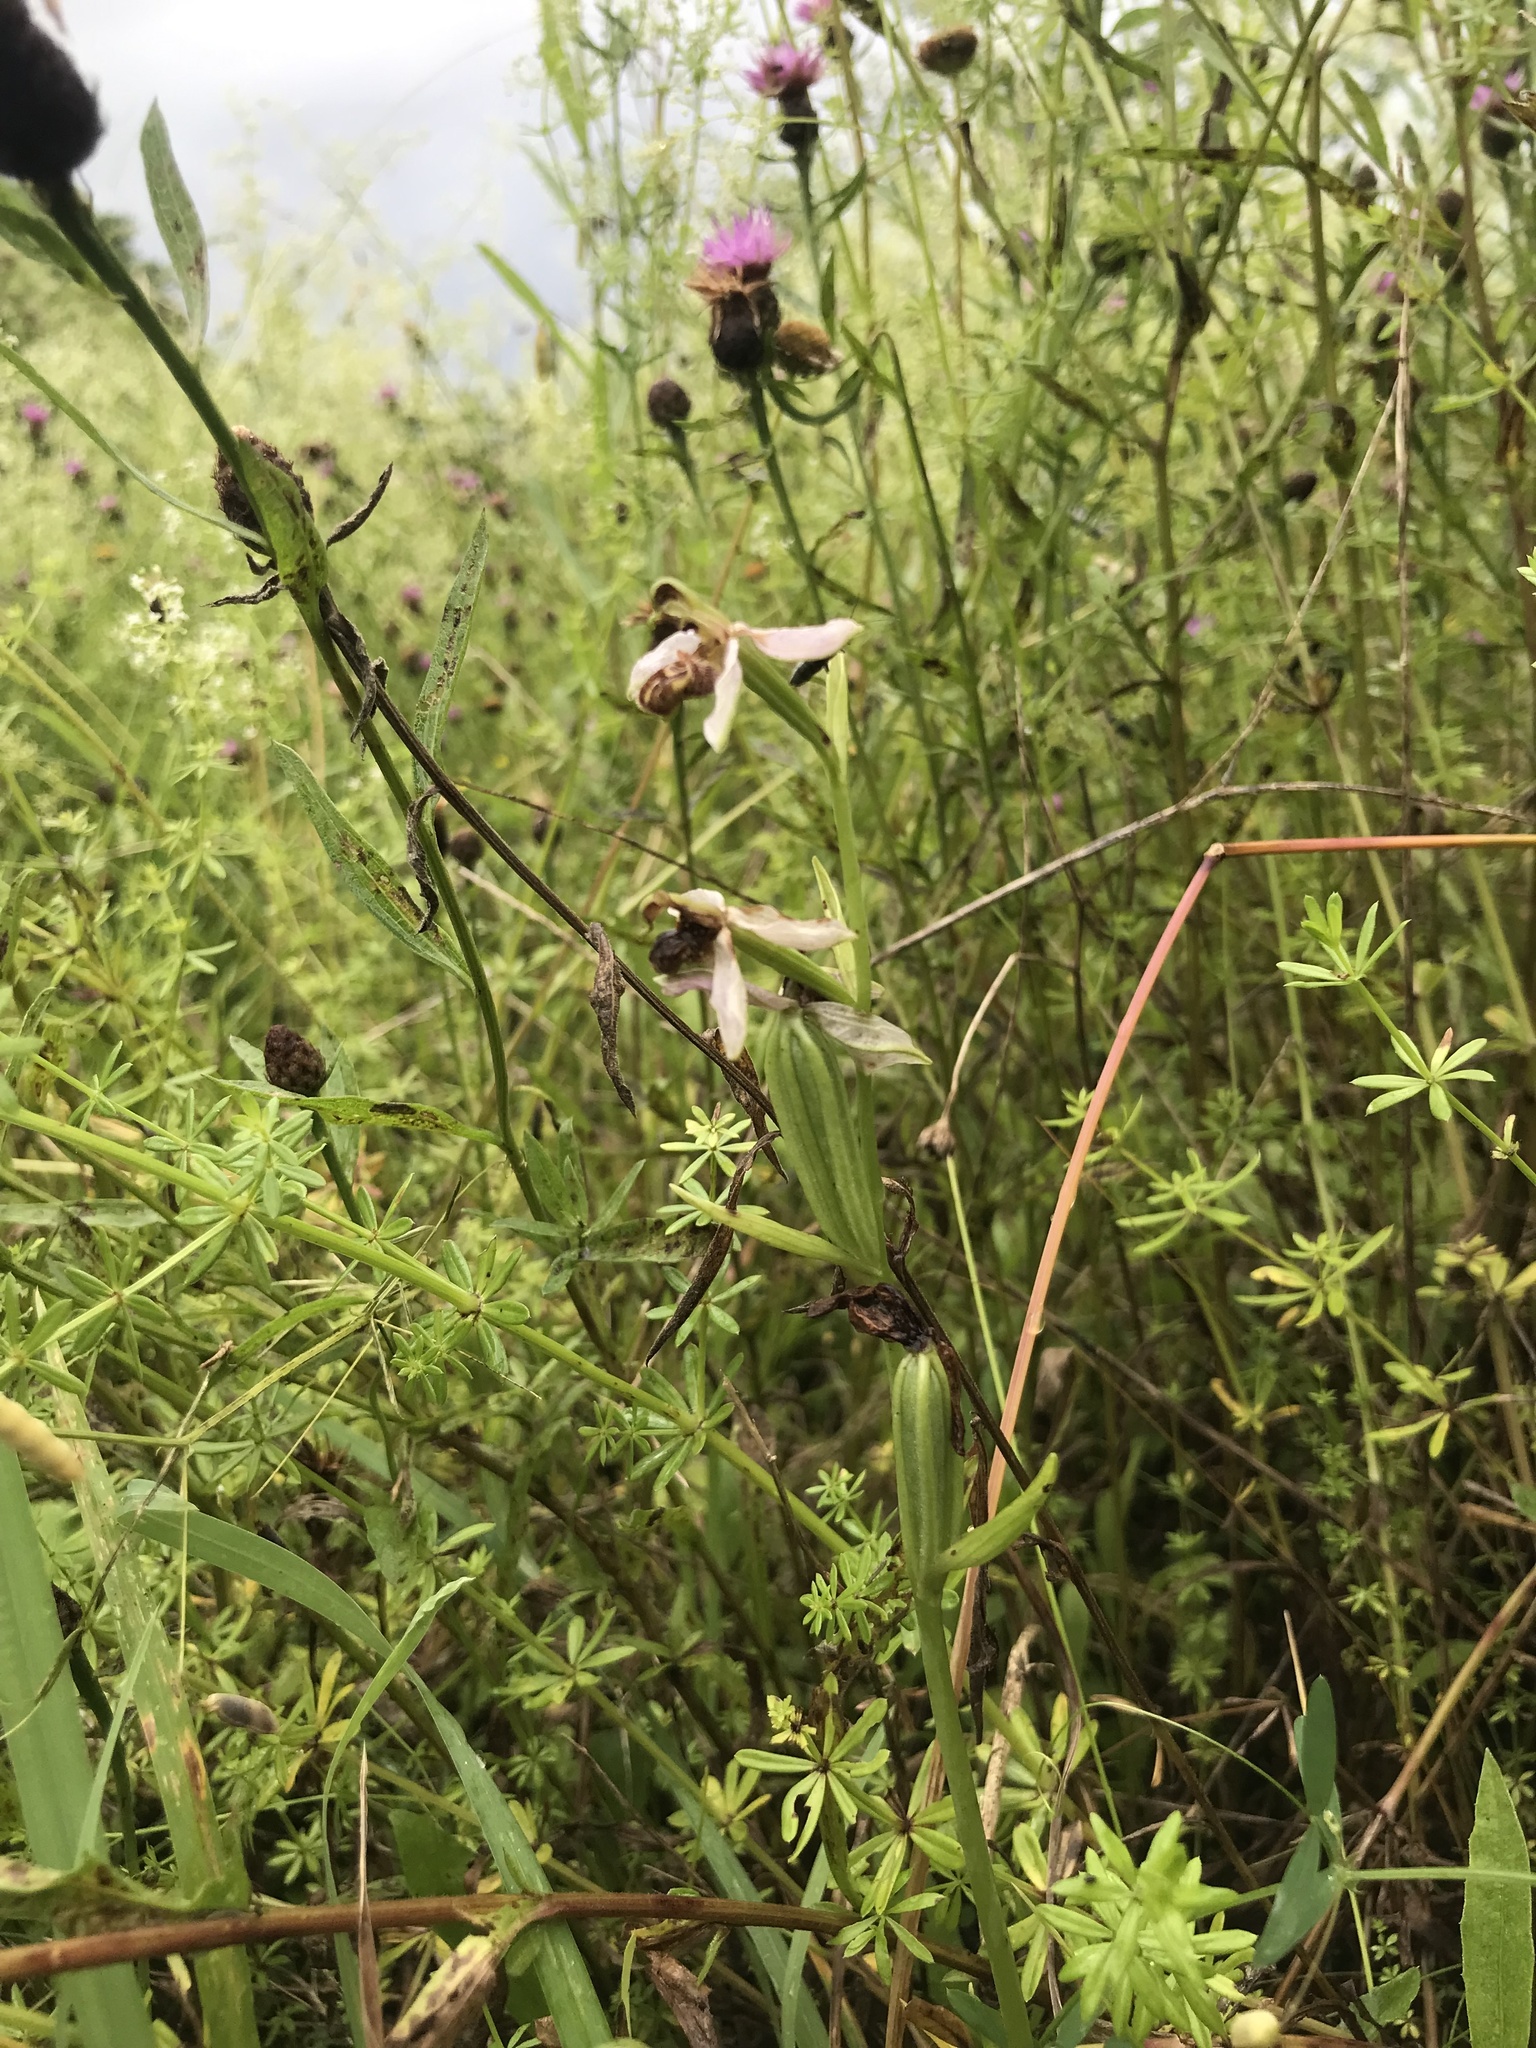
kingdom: Plantae
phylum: Tracheophyta
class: Liliopsida
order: Asparagales
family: Orchidaceae
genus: Ophrys
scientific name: Ophrys apifera
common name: Bee orchid
